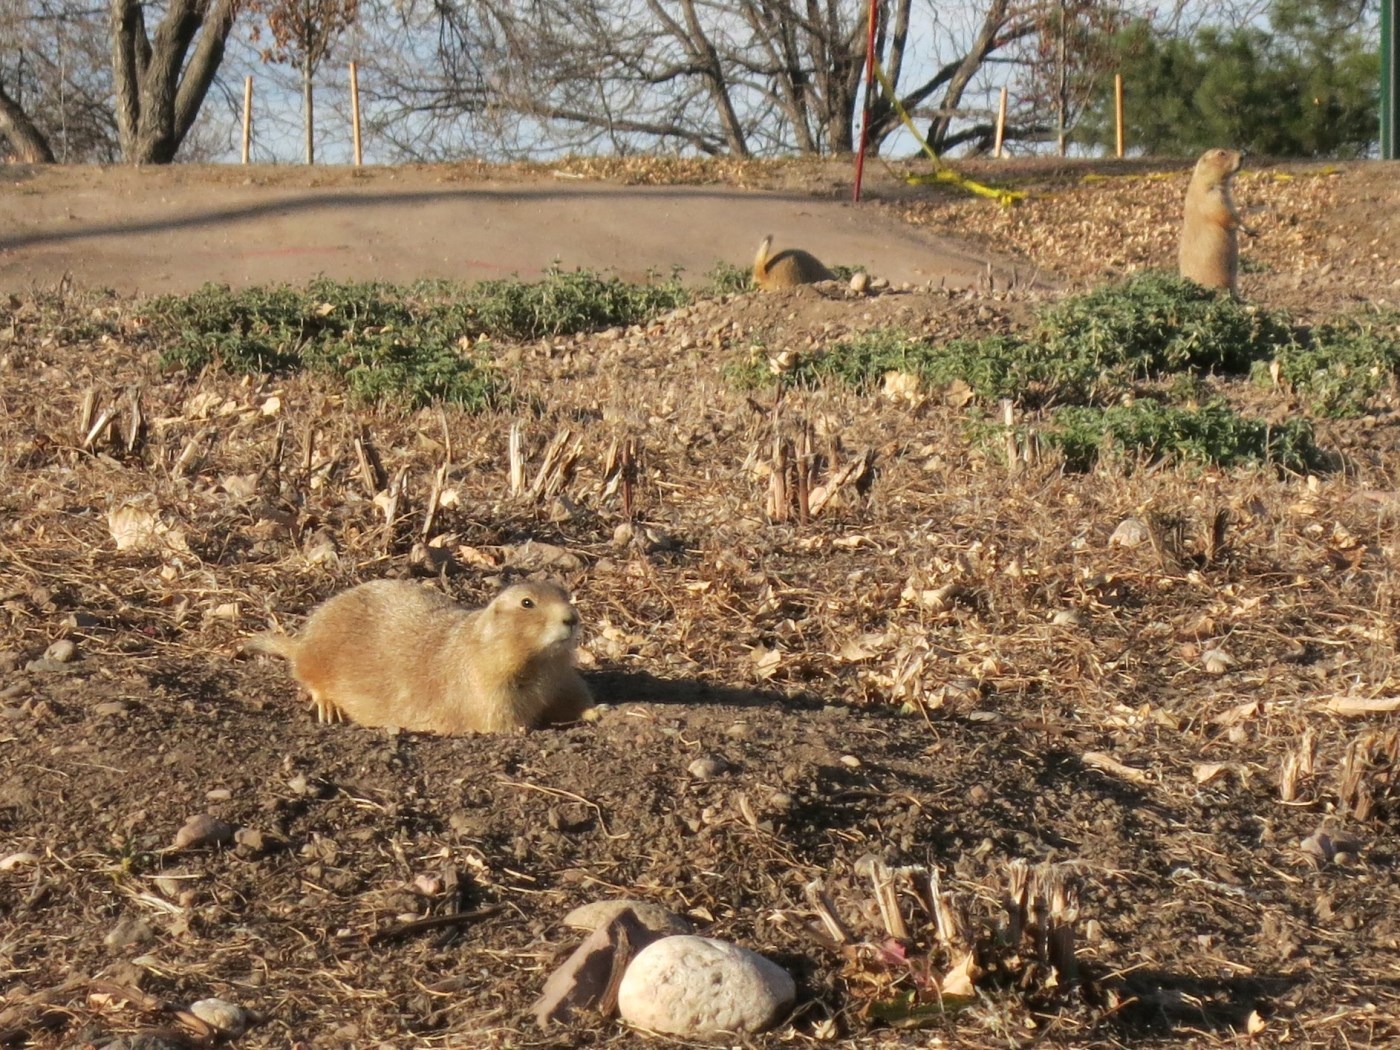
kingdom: Animalia
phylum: Chordata
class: Mammalia
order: Rodentia
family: Sciuridae
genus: Cynomys
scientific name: Cynomys ludovicianus
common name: Black-tailed prairie dog
